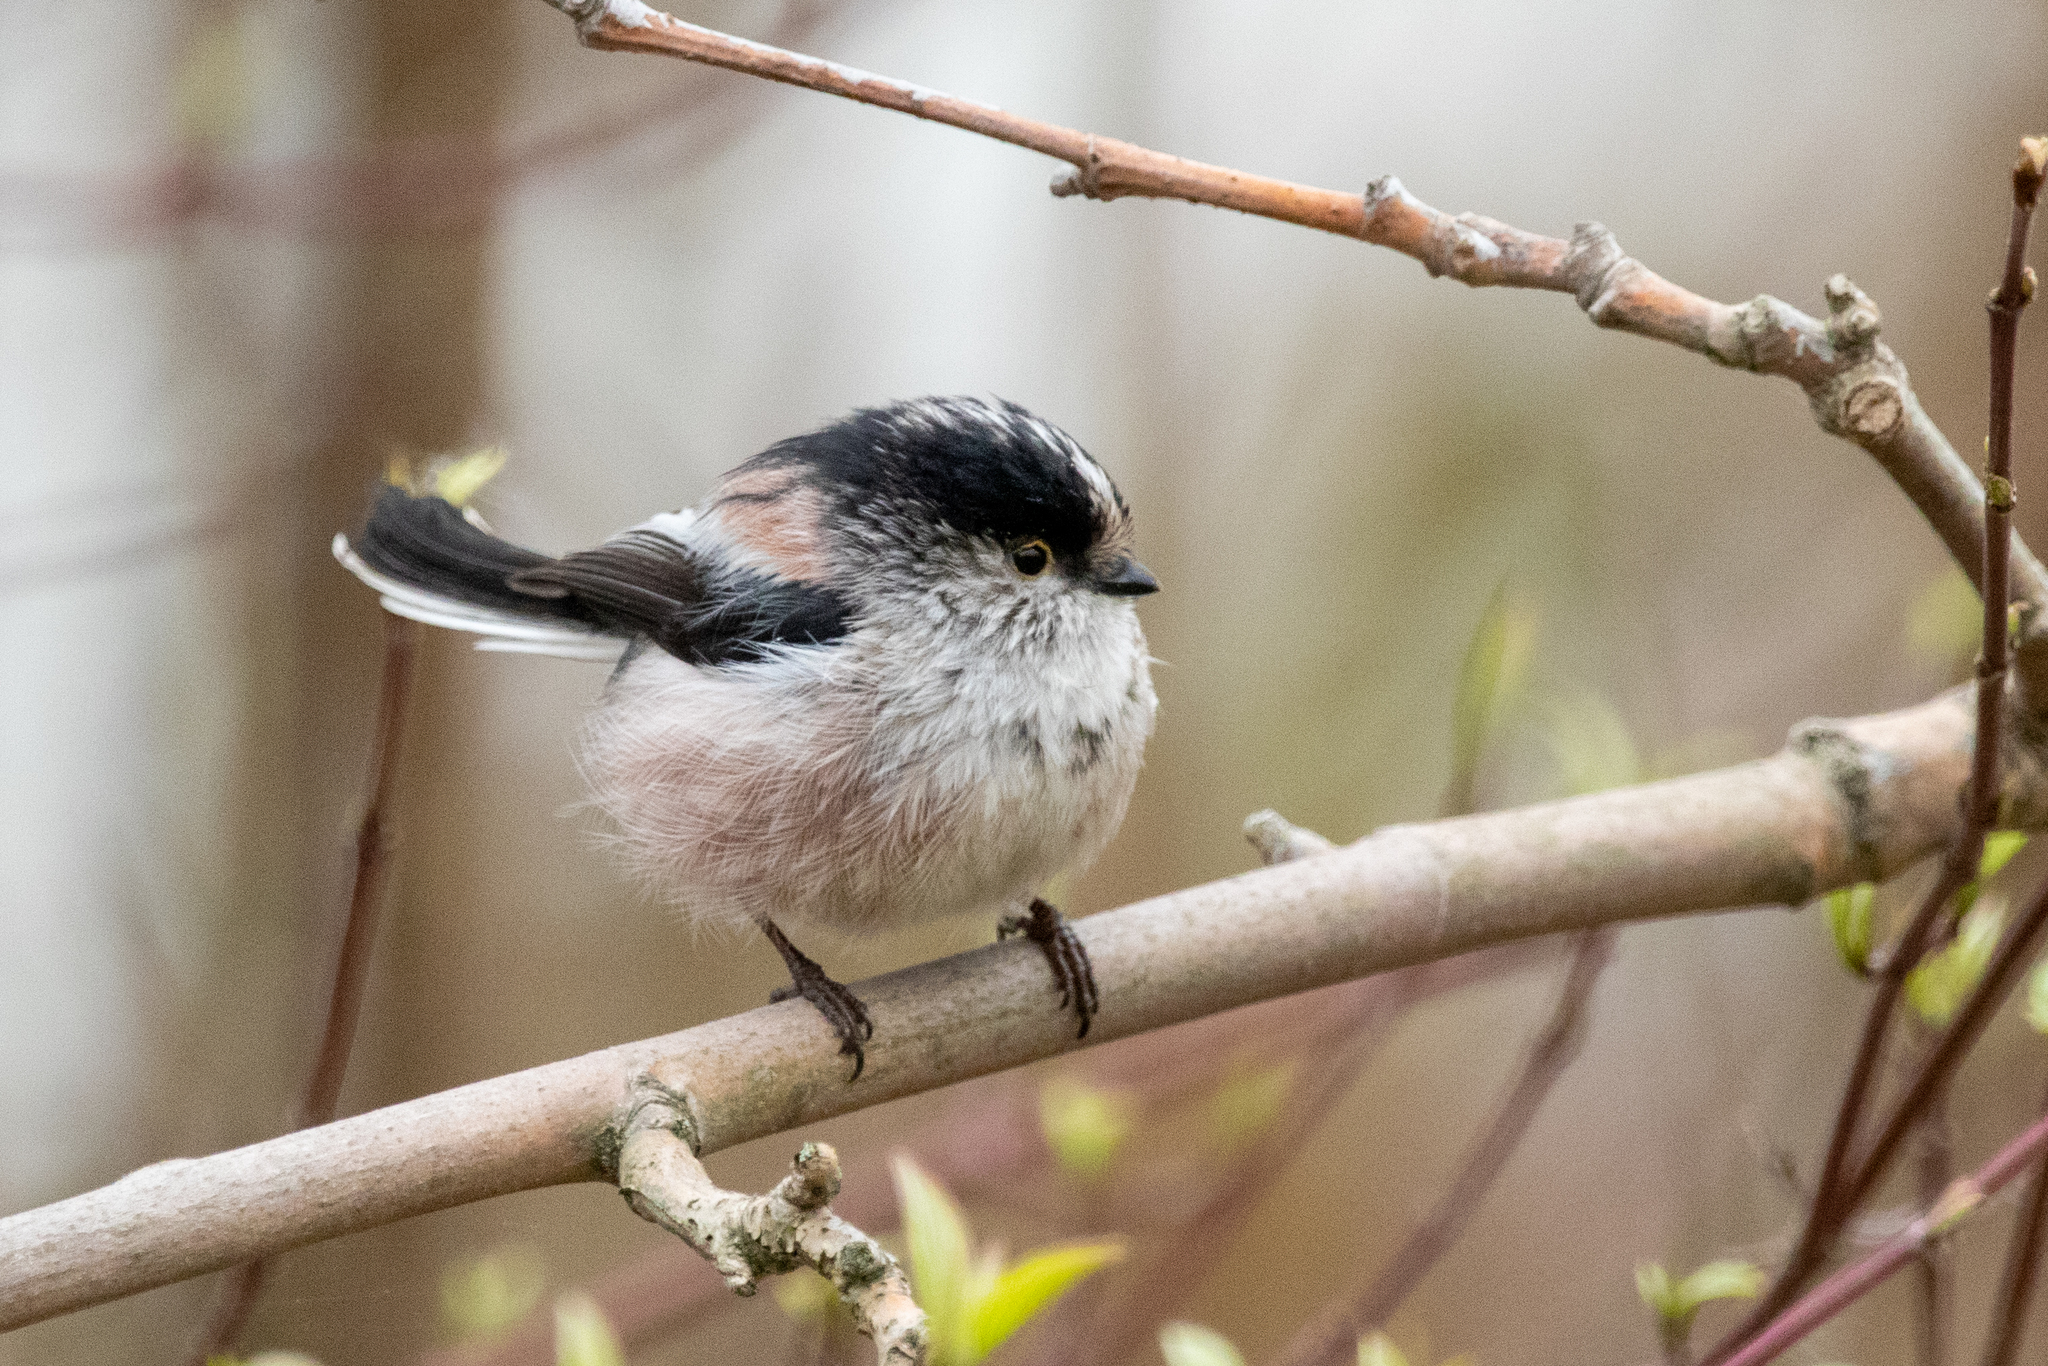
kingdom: Animalia
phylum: Chordata
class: Aves
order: Passeriformes
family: Aegithalidae
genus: Aegithalos
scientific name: Aegithalos caudatus
